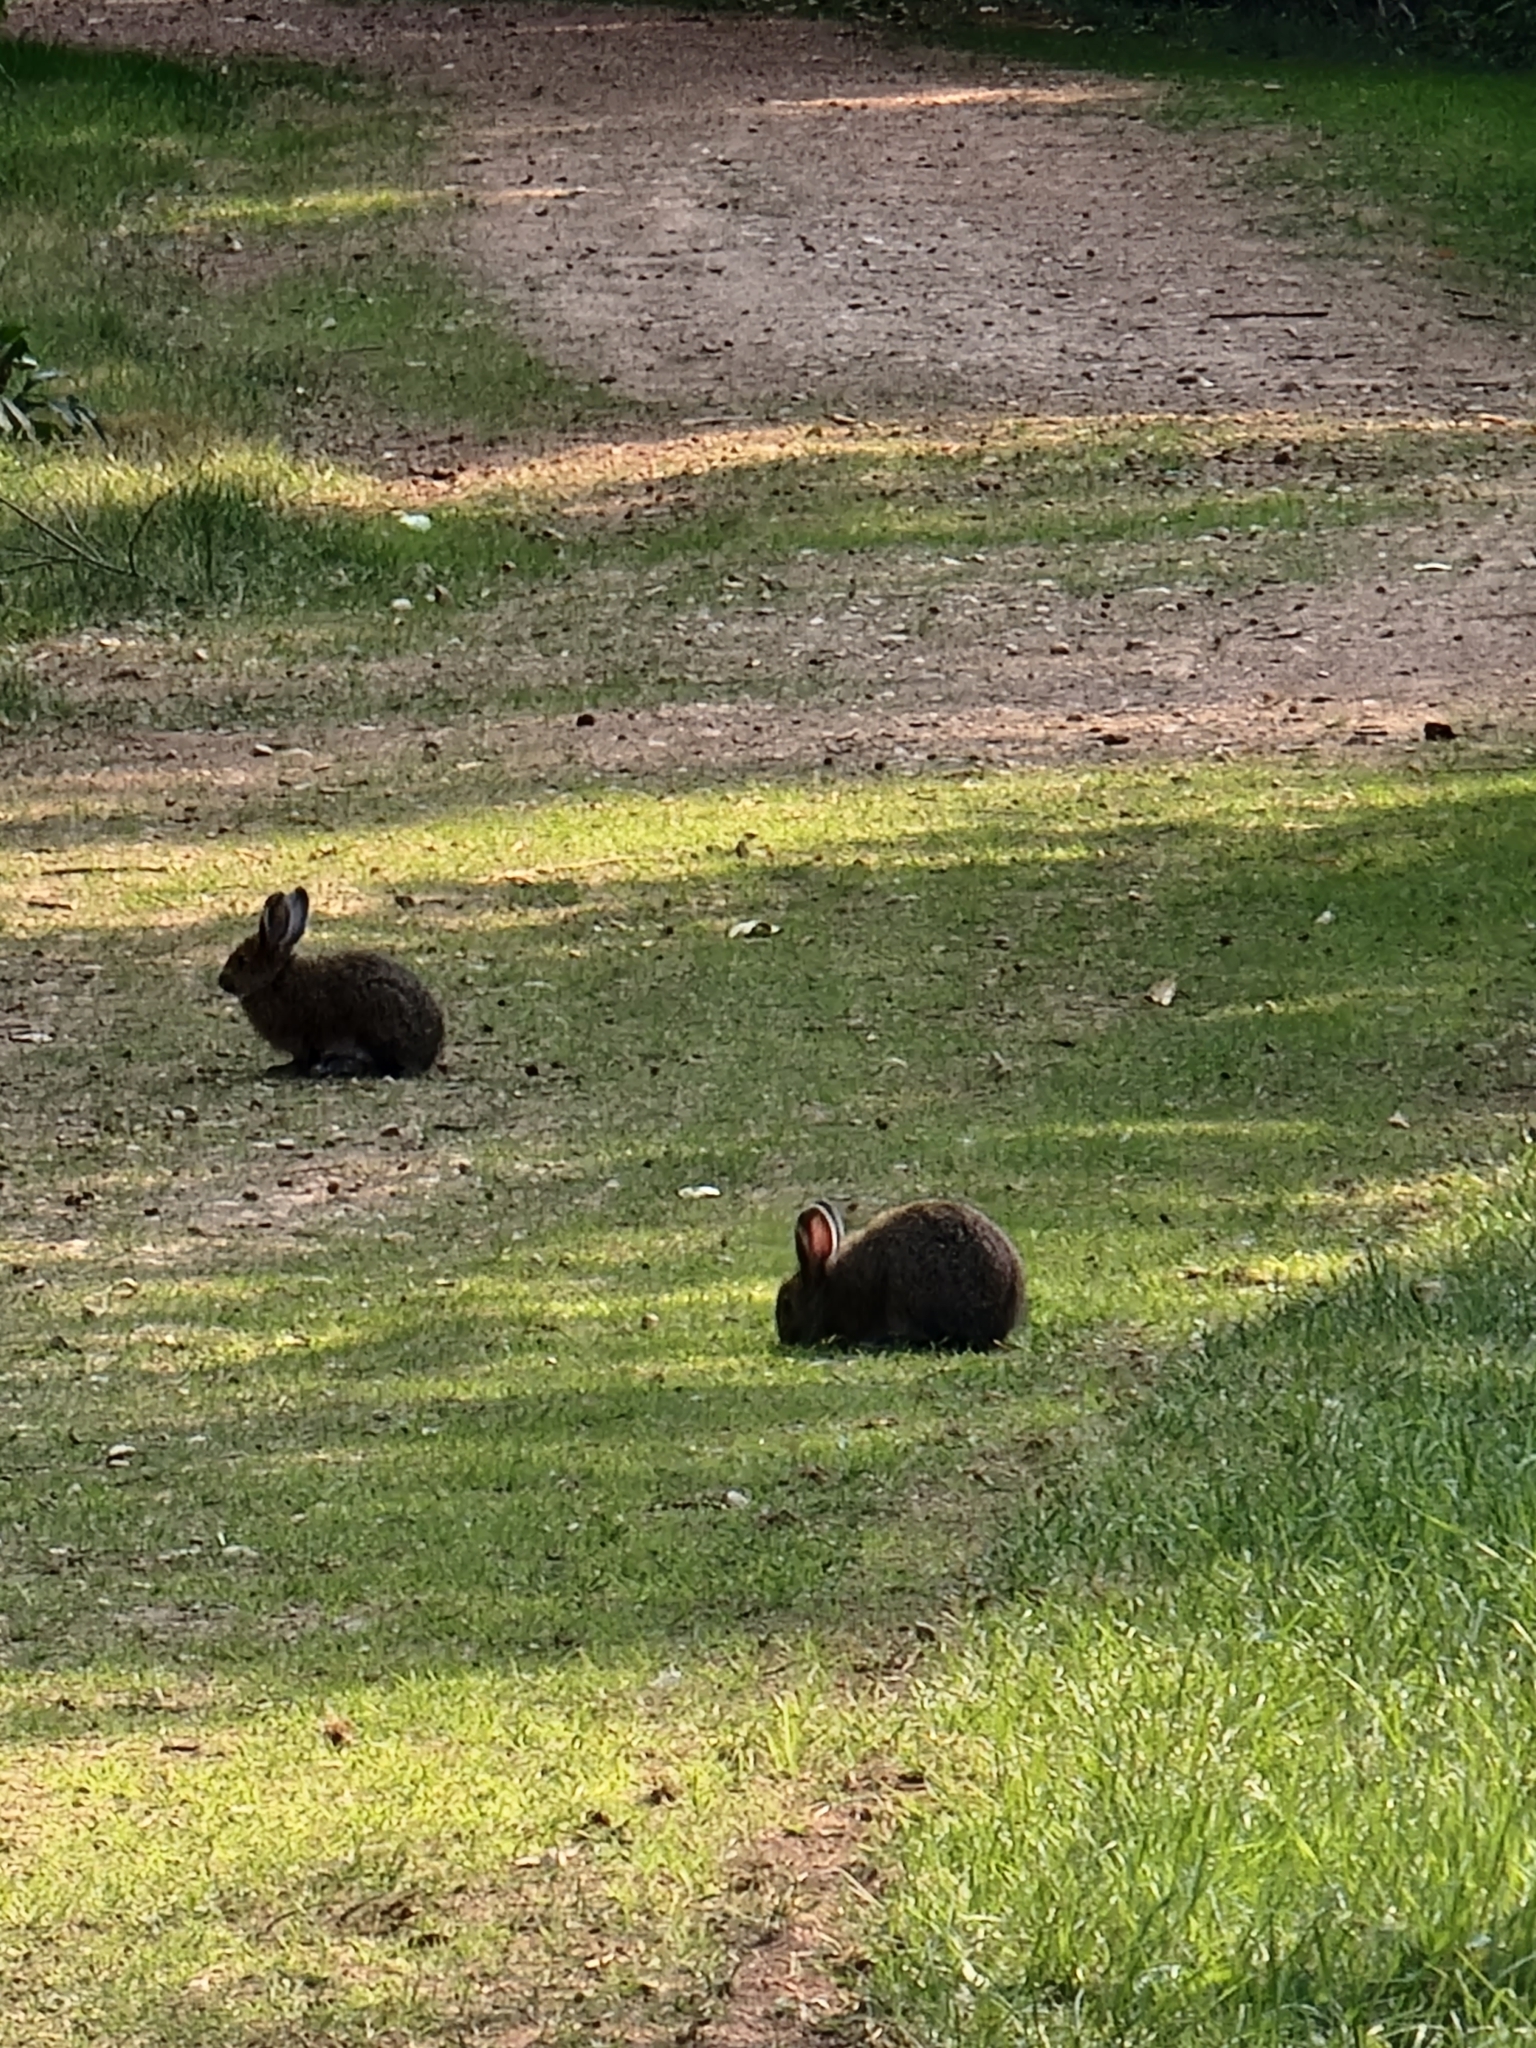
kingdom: Animalia
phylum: Chordata
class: Mammalia
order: Lagomorpha
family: Leporidae
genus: Lepus
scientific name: Lepus americanus
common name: Snowshoe hare
